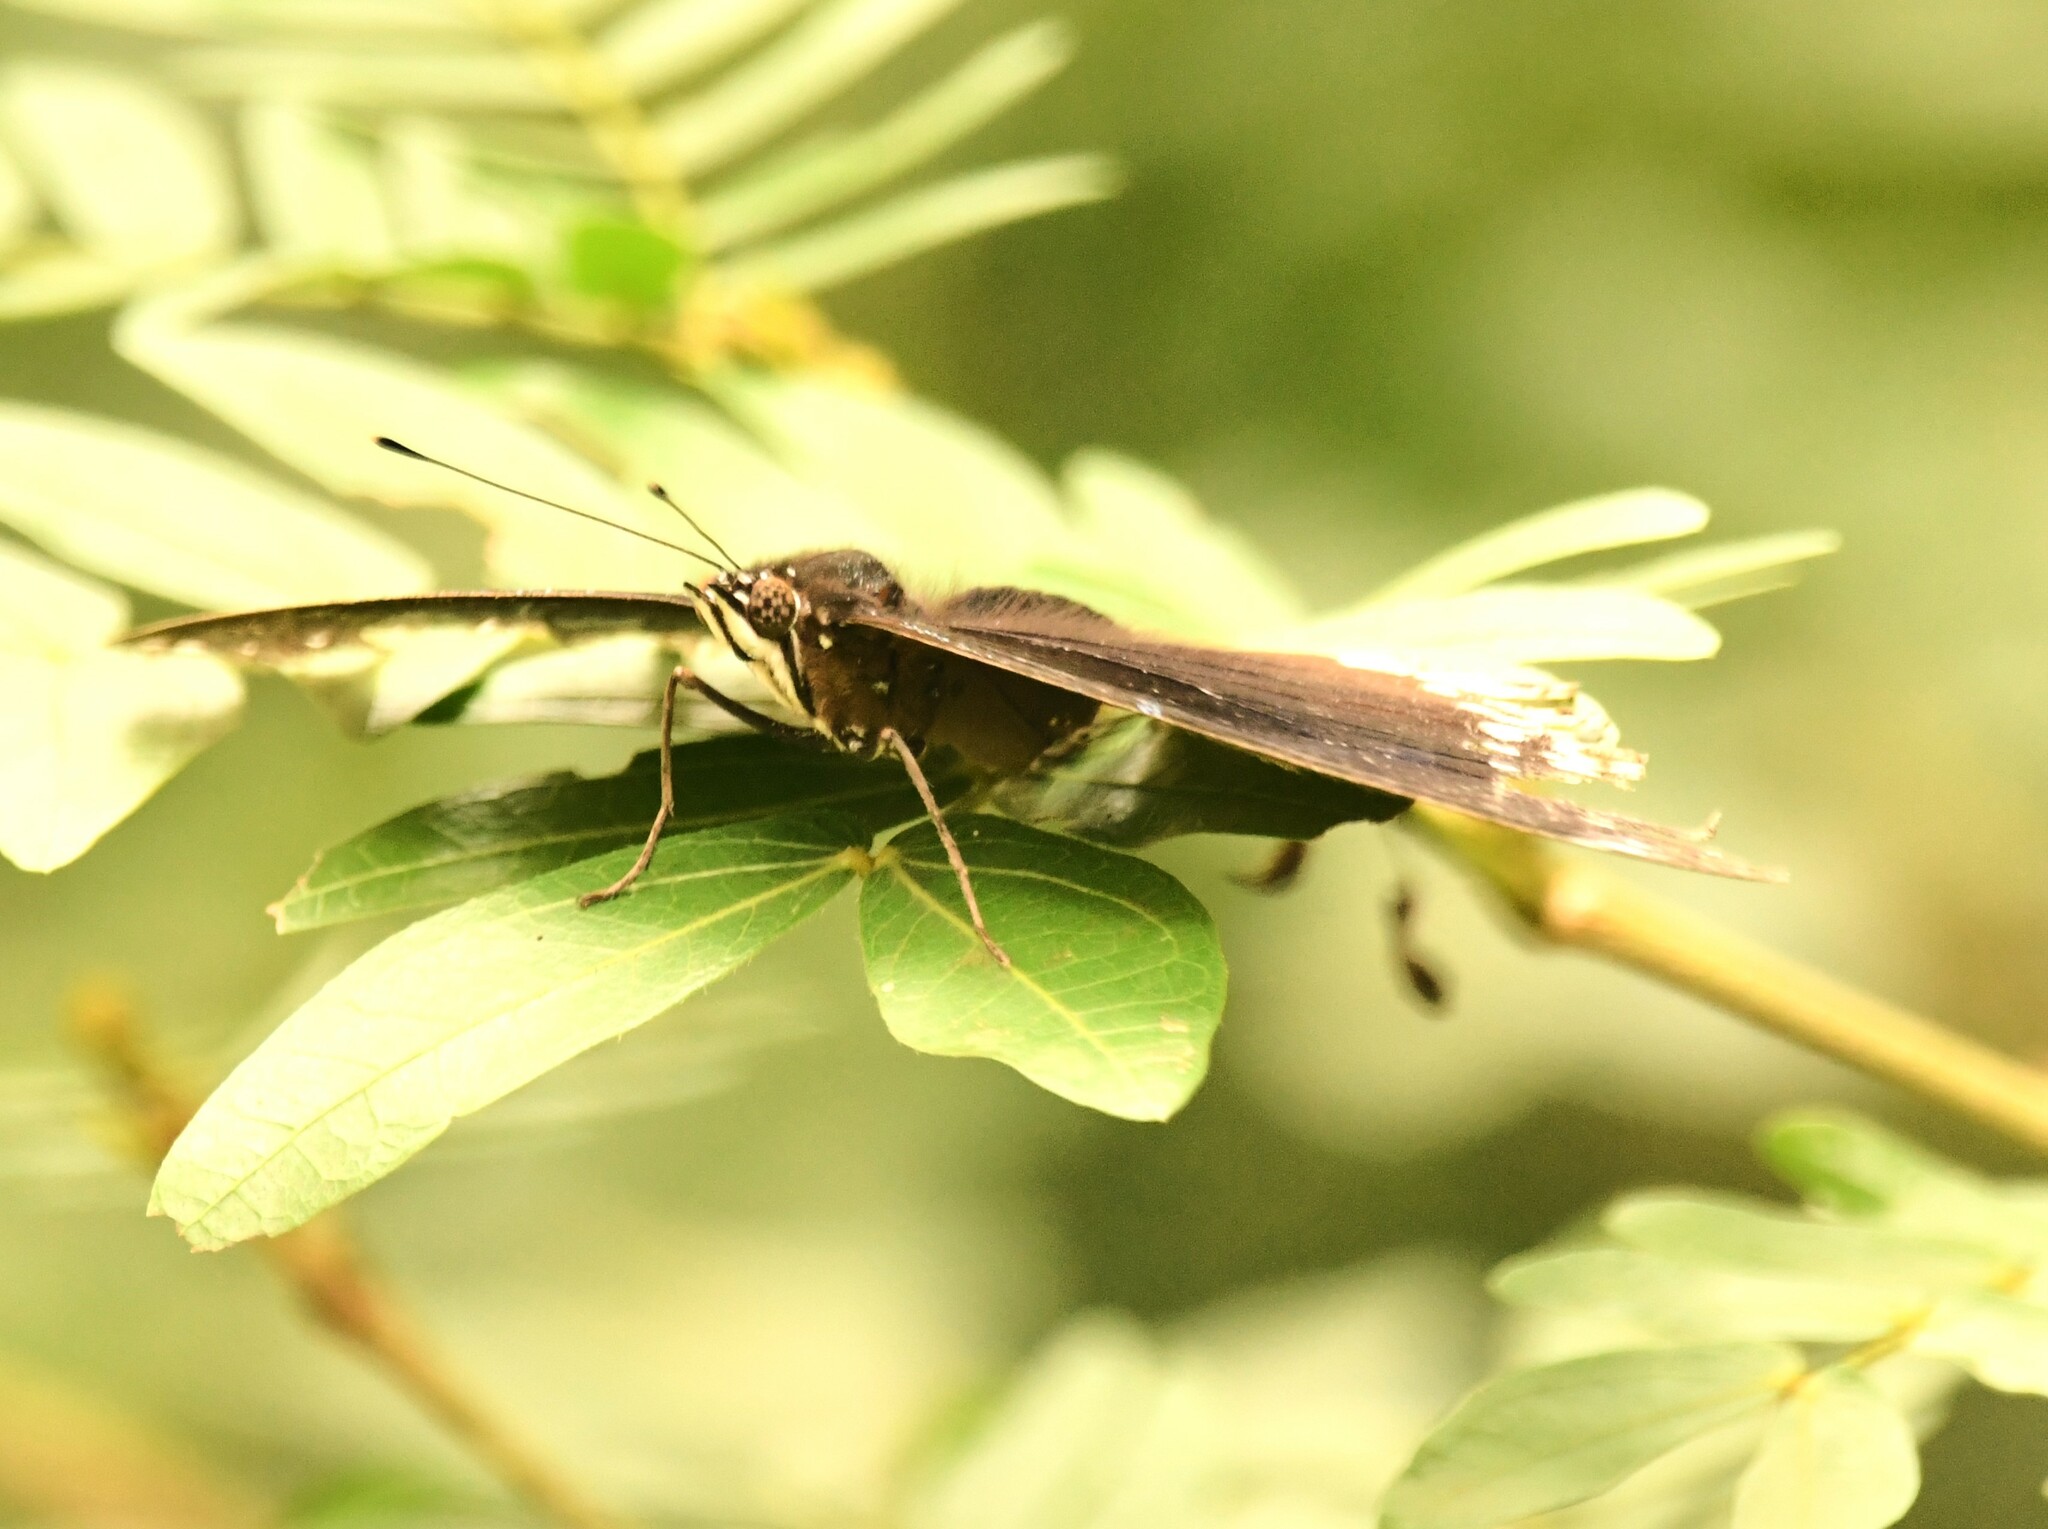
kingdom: Animalia
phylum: Arthropoda
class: Insecta
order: Lepidoptera
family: Nymphalidae
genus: Hypolimnas
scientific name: Hypolimnas bolina
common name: Great eggfly
